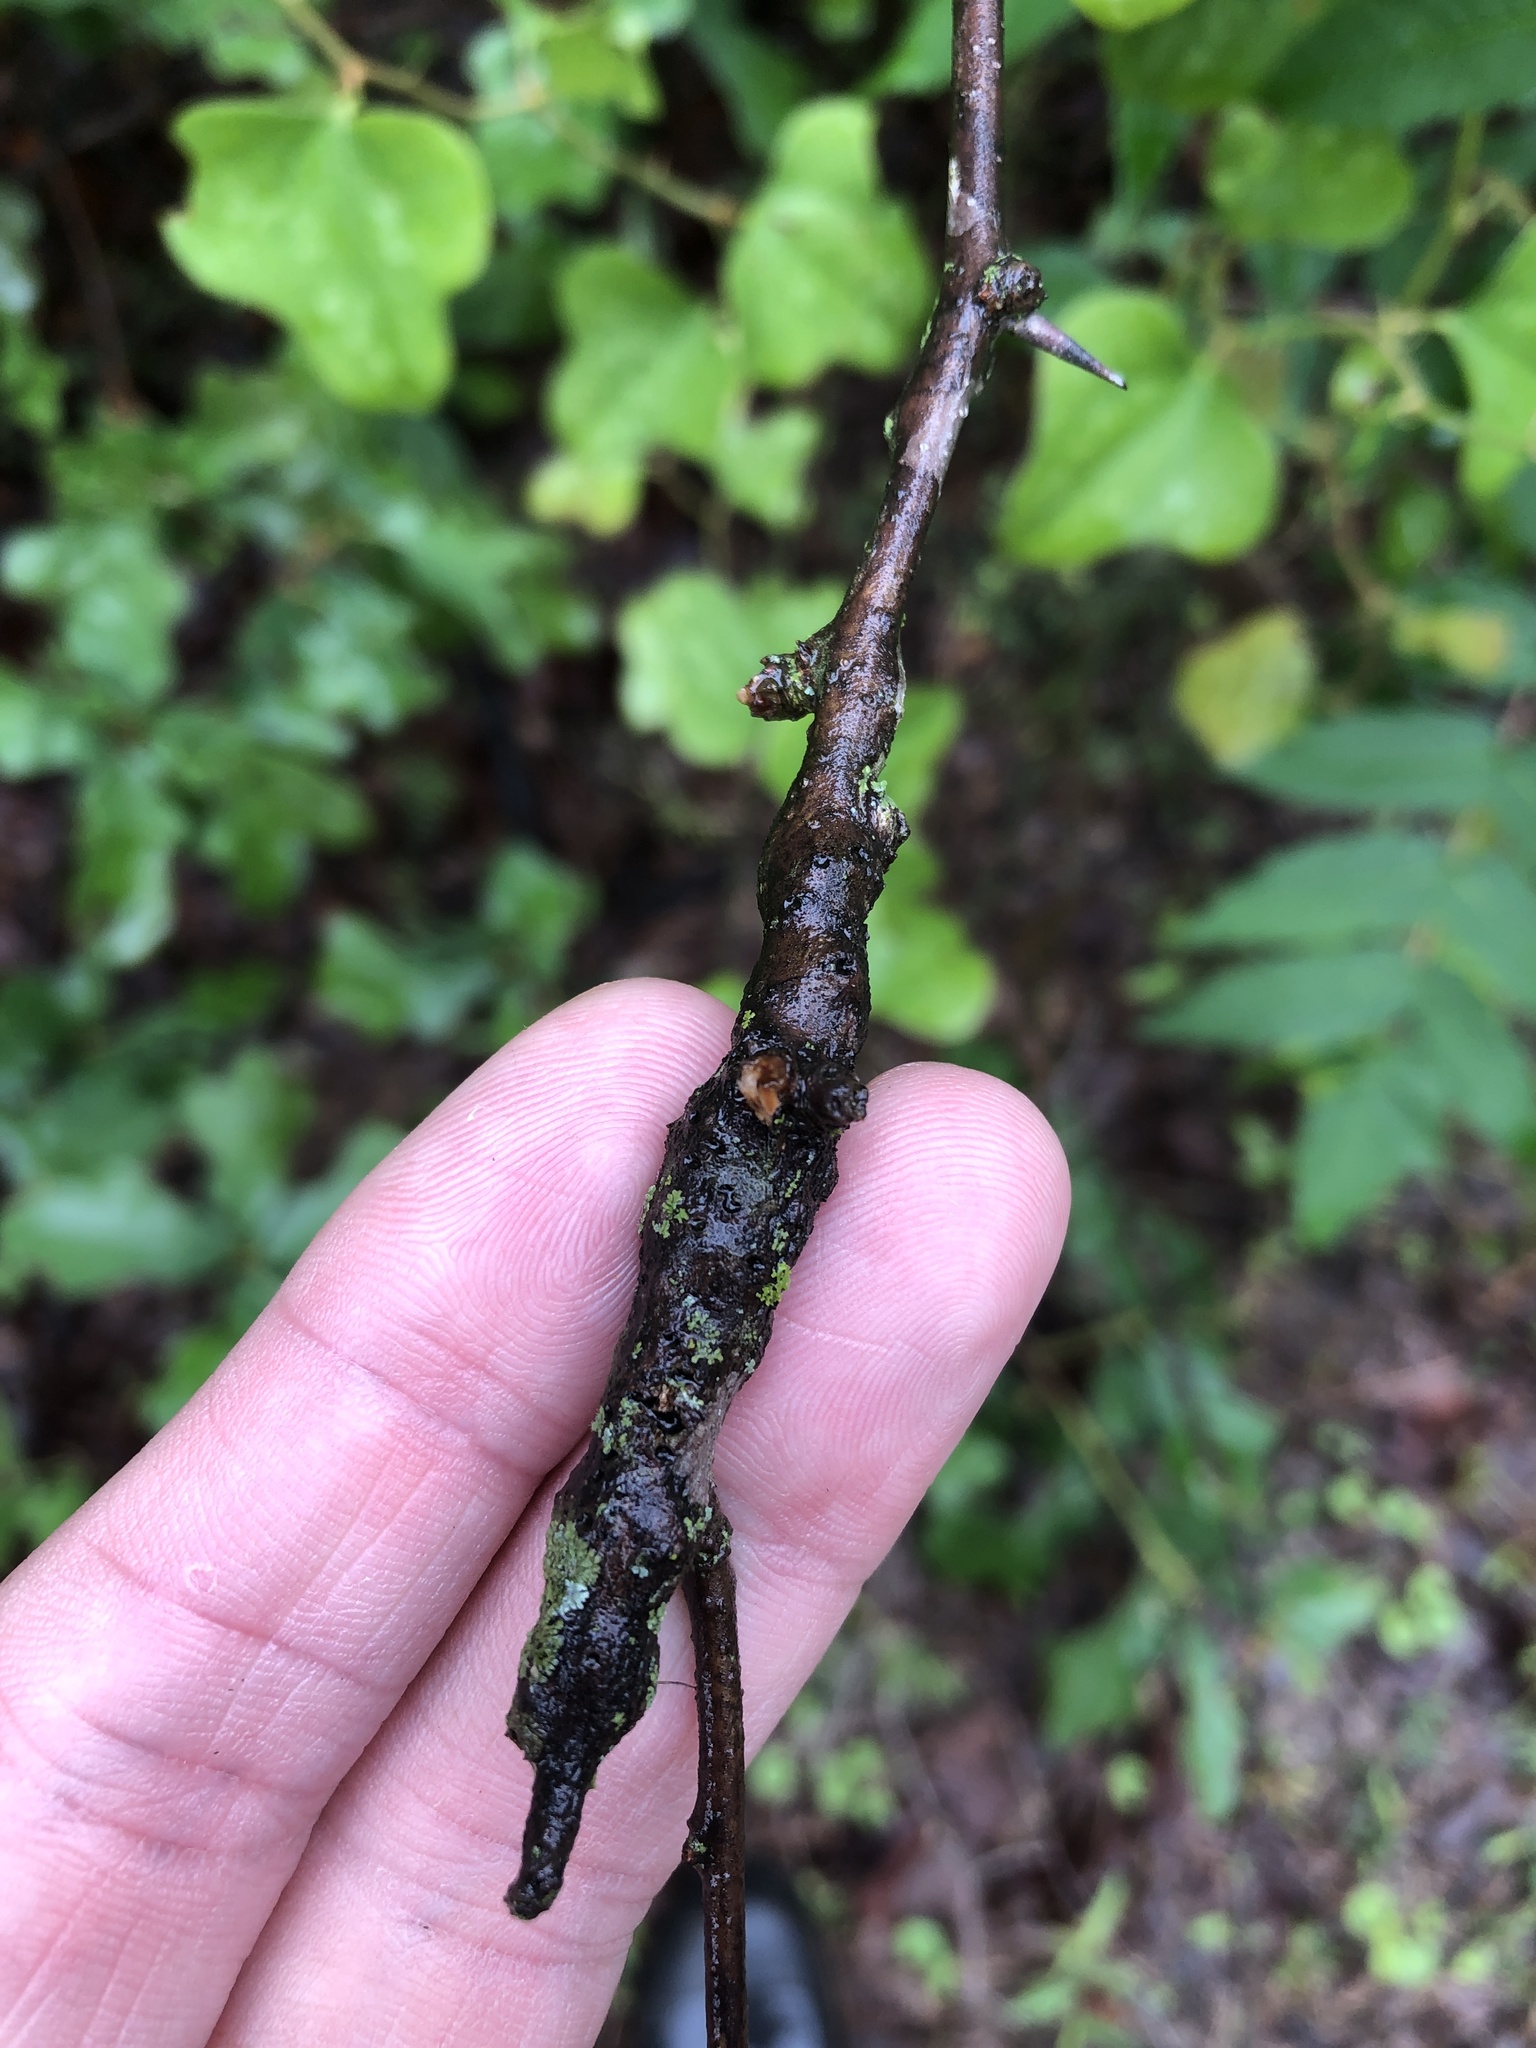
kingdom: Animalia
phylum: Arthropoda
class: Insecta
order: Diptera
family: Cecidomyiidae
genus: Bruggmanniella
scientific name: Bruggmanniella bumeliae
